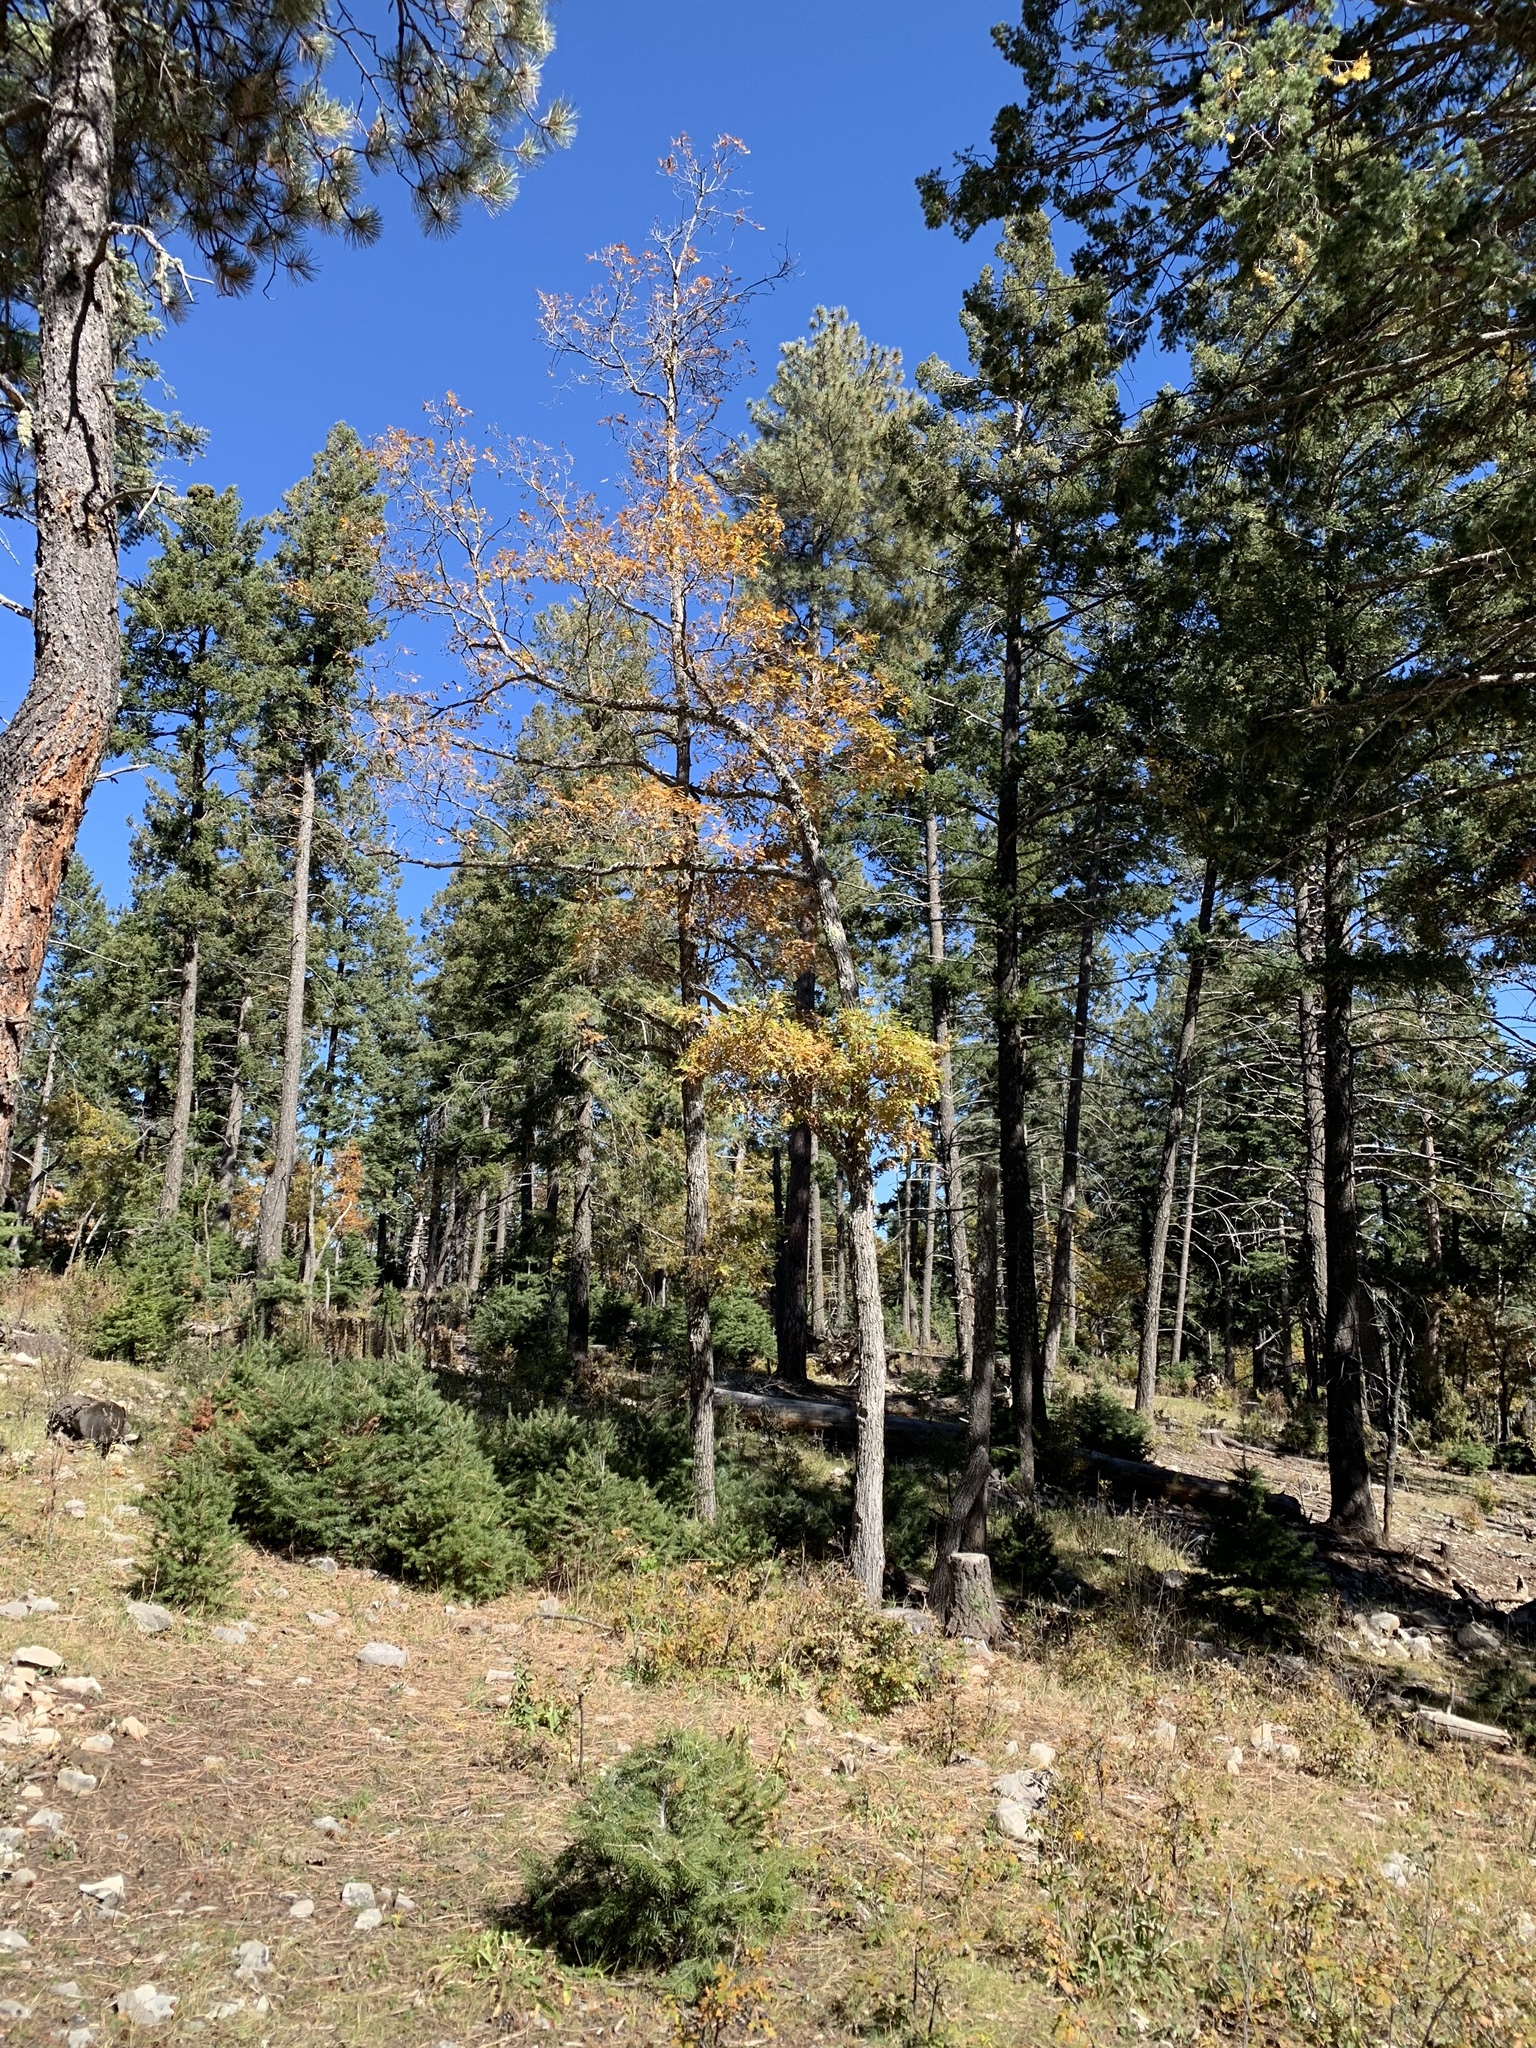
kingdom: Plantae
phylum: Tracheophyta
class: Magnoliopsida
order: Malpighiales
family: Salicaceae
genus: Populus
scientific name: Populus tremuloides
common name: Quaking aspen
